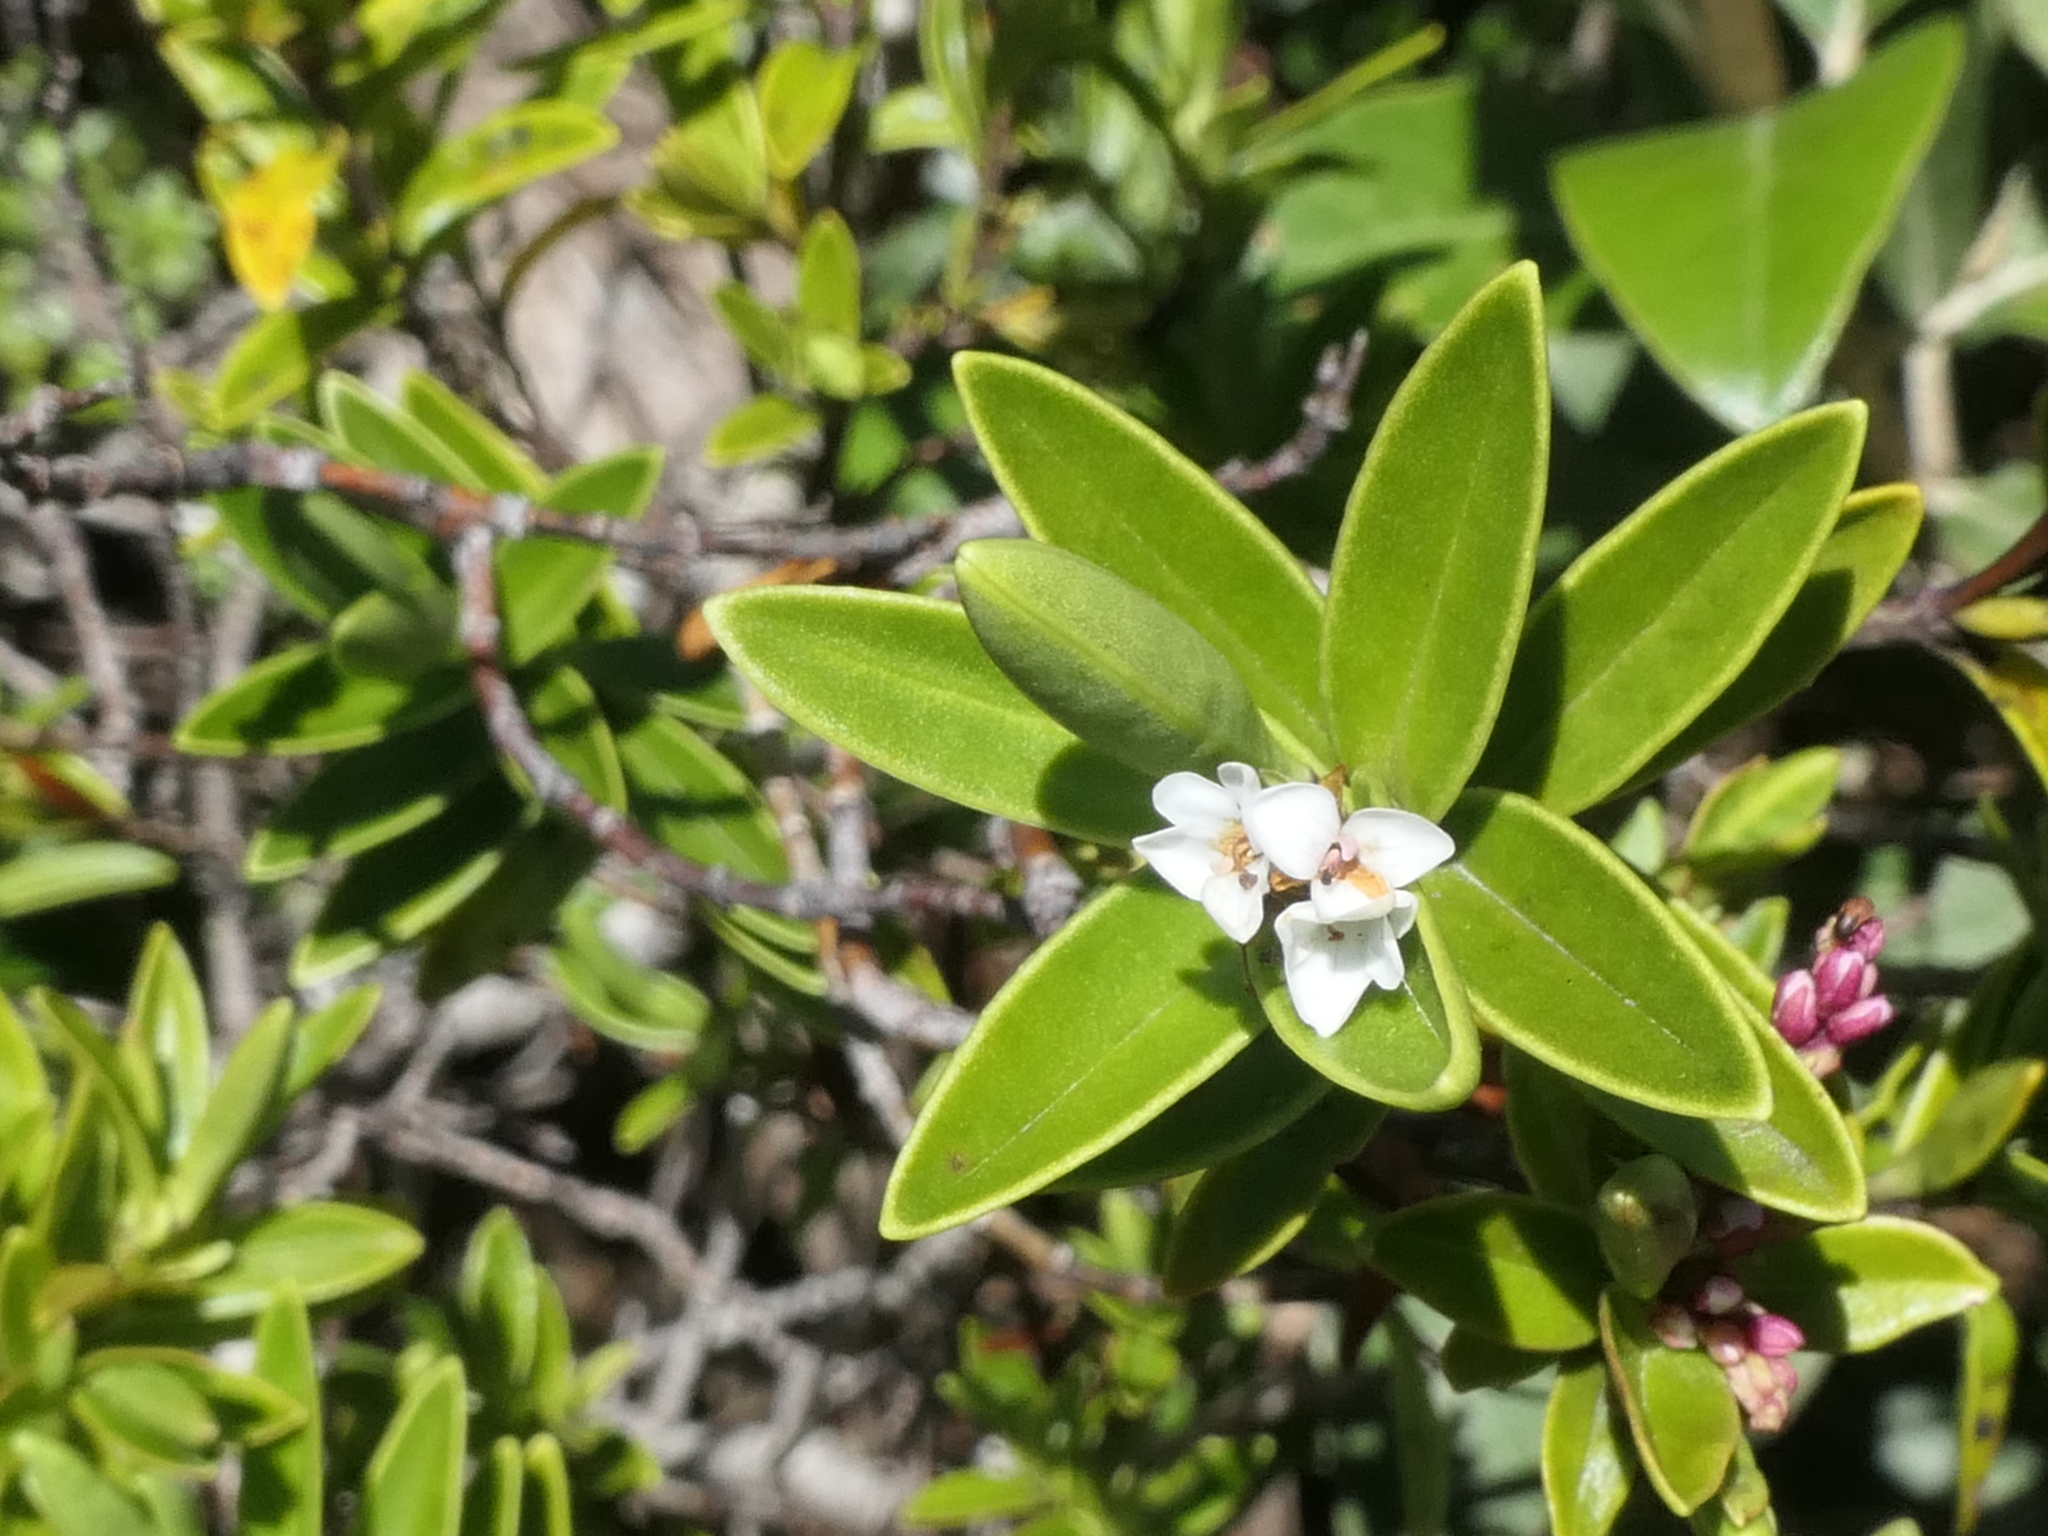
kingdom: Plantae
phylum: Tracheophyta
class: Magnoliopsida
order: Lamiales
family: Plantaginaceae
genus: Veronica
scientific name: Veronica subalpina
